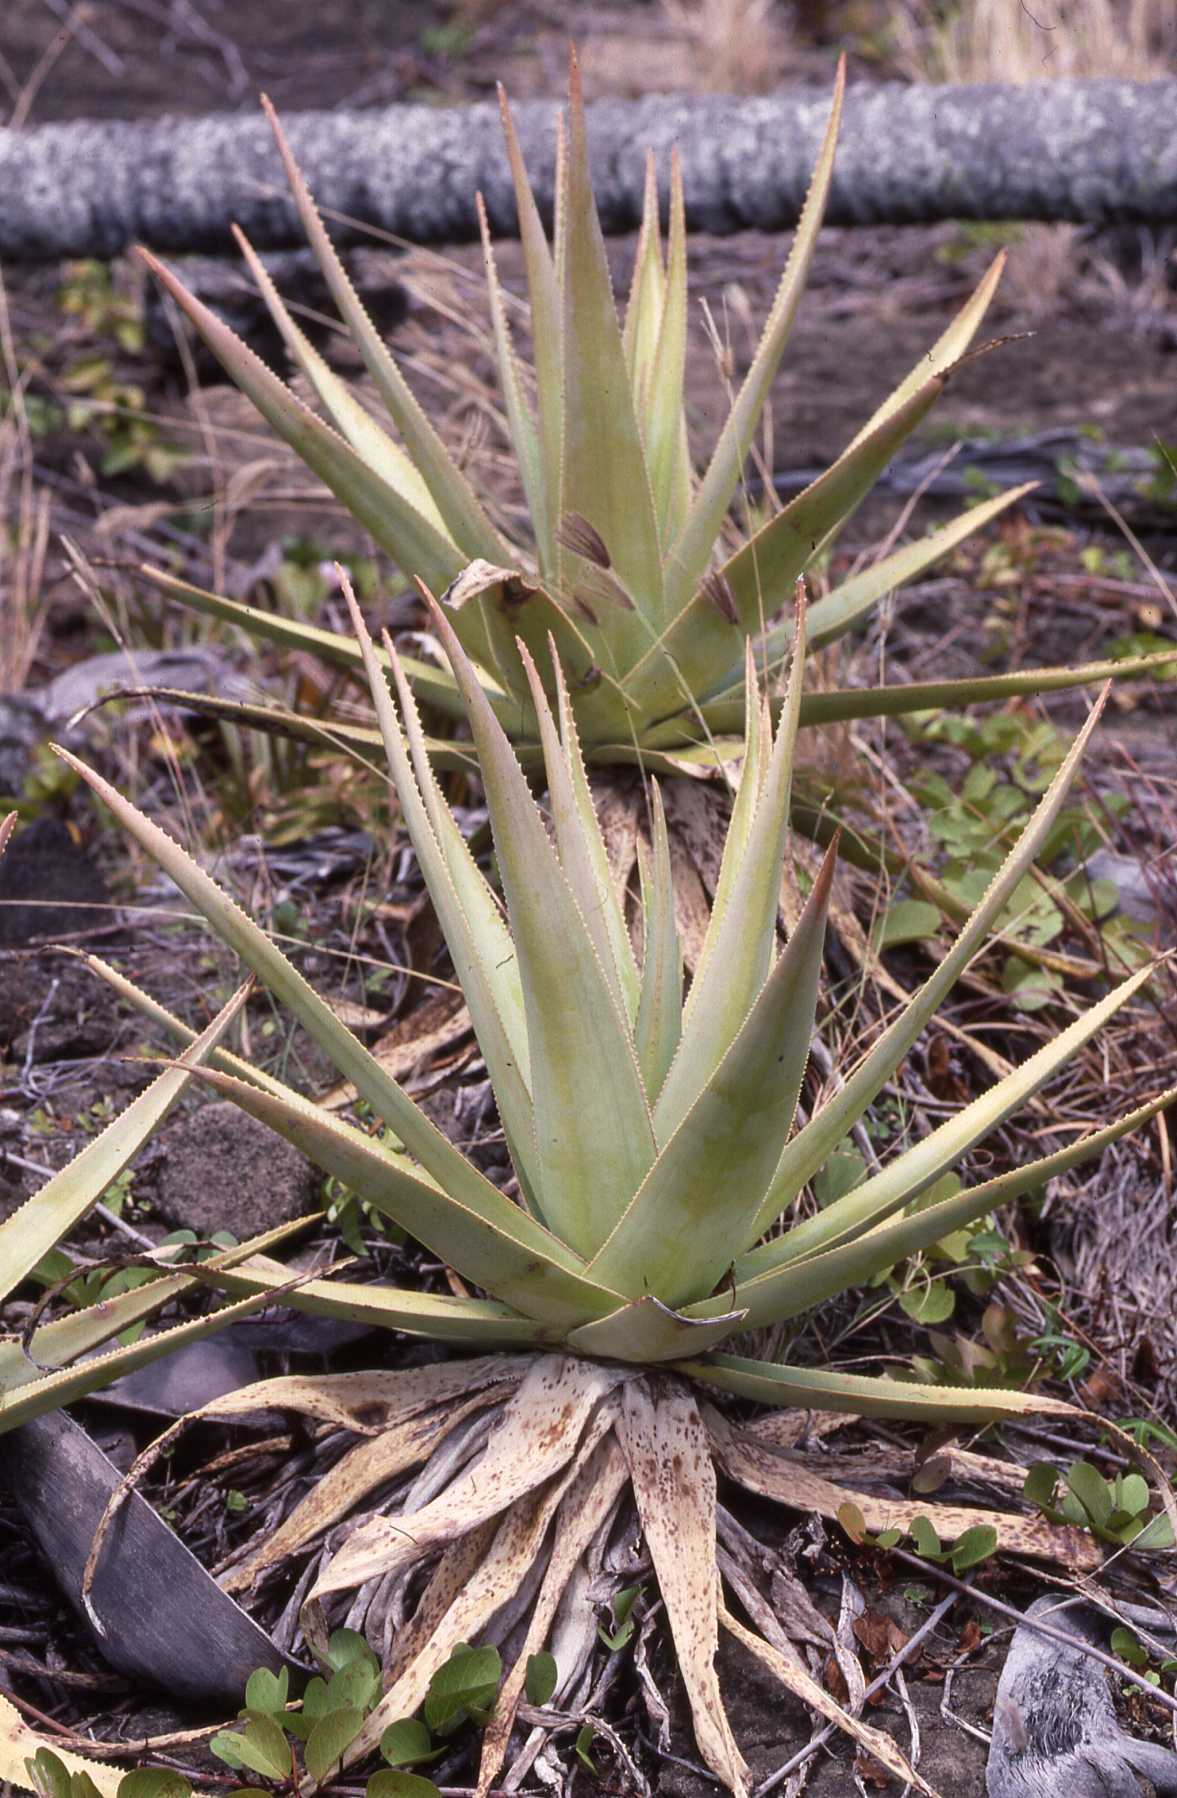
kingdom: Plantae
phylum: Tracheophyta
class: Liliopsida
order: Asparagales
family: Asphodelaceae
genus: Aloe
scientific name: Aloe tormentorii
